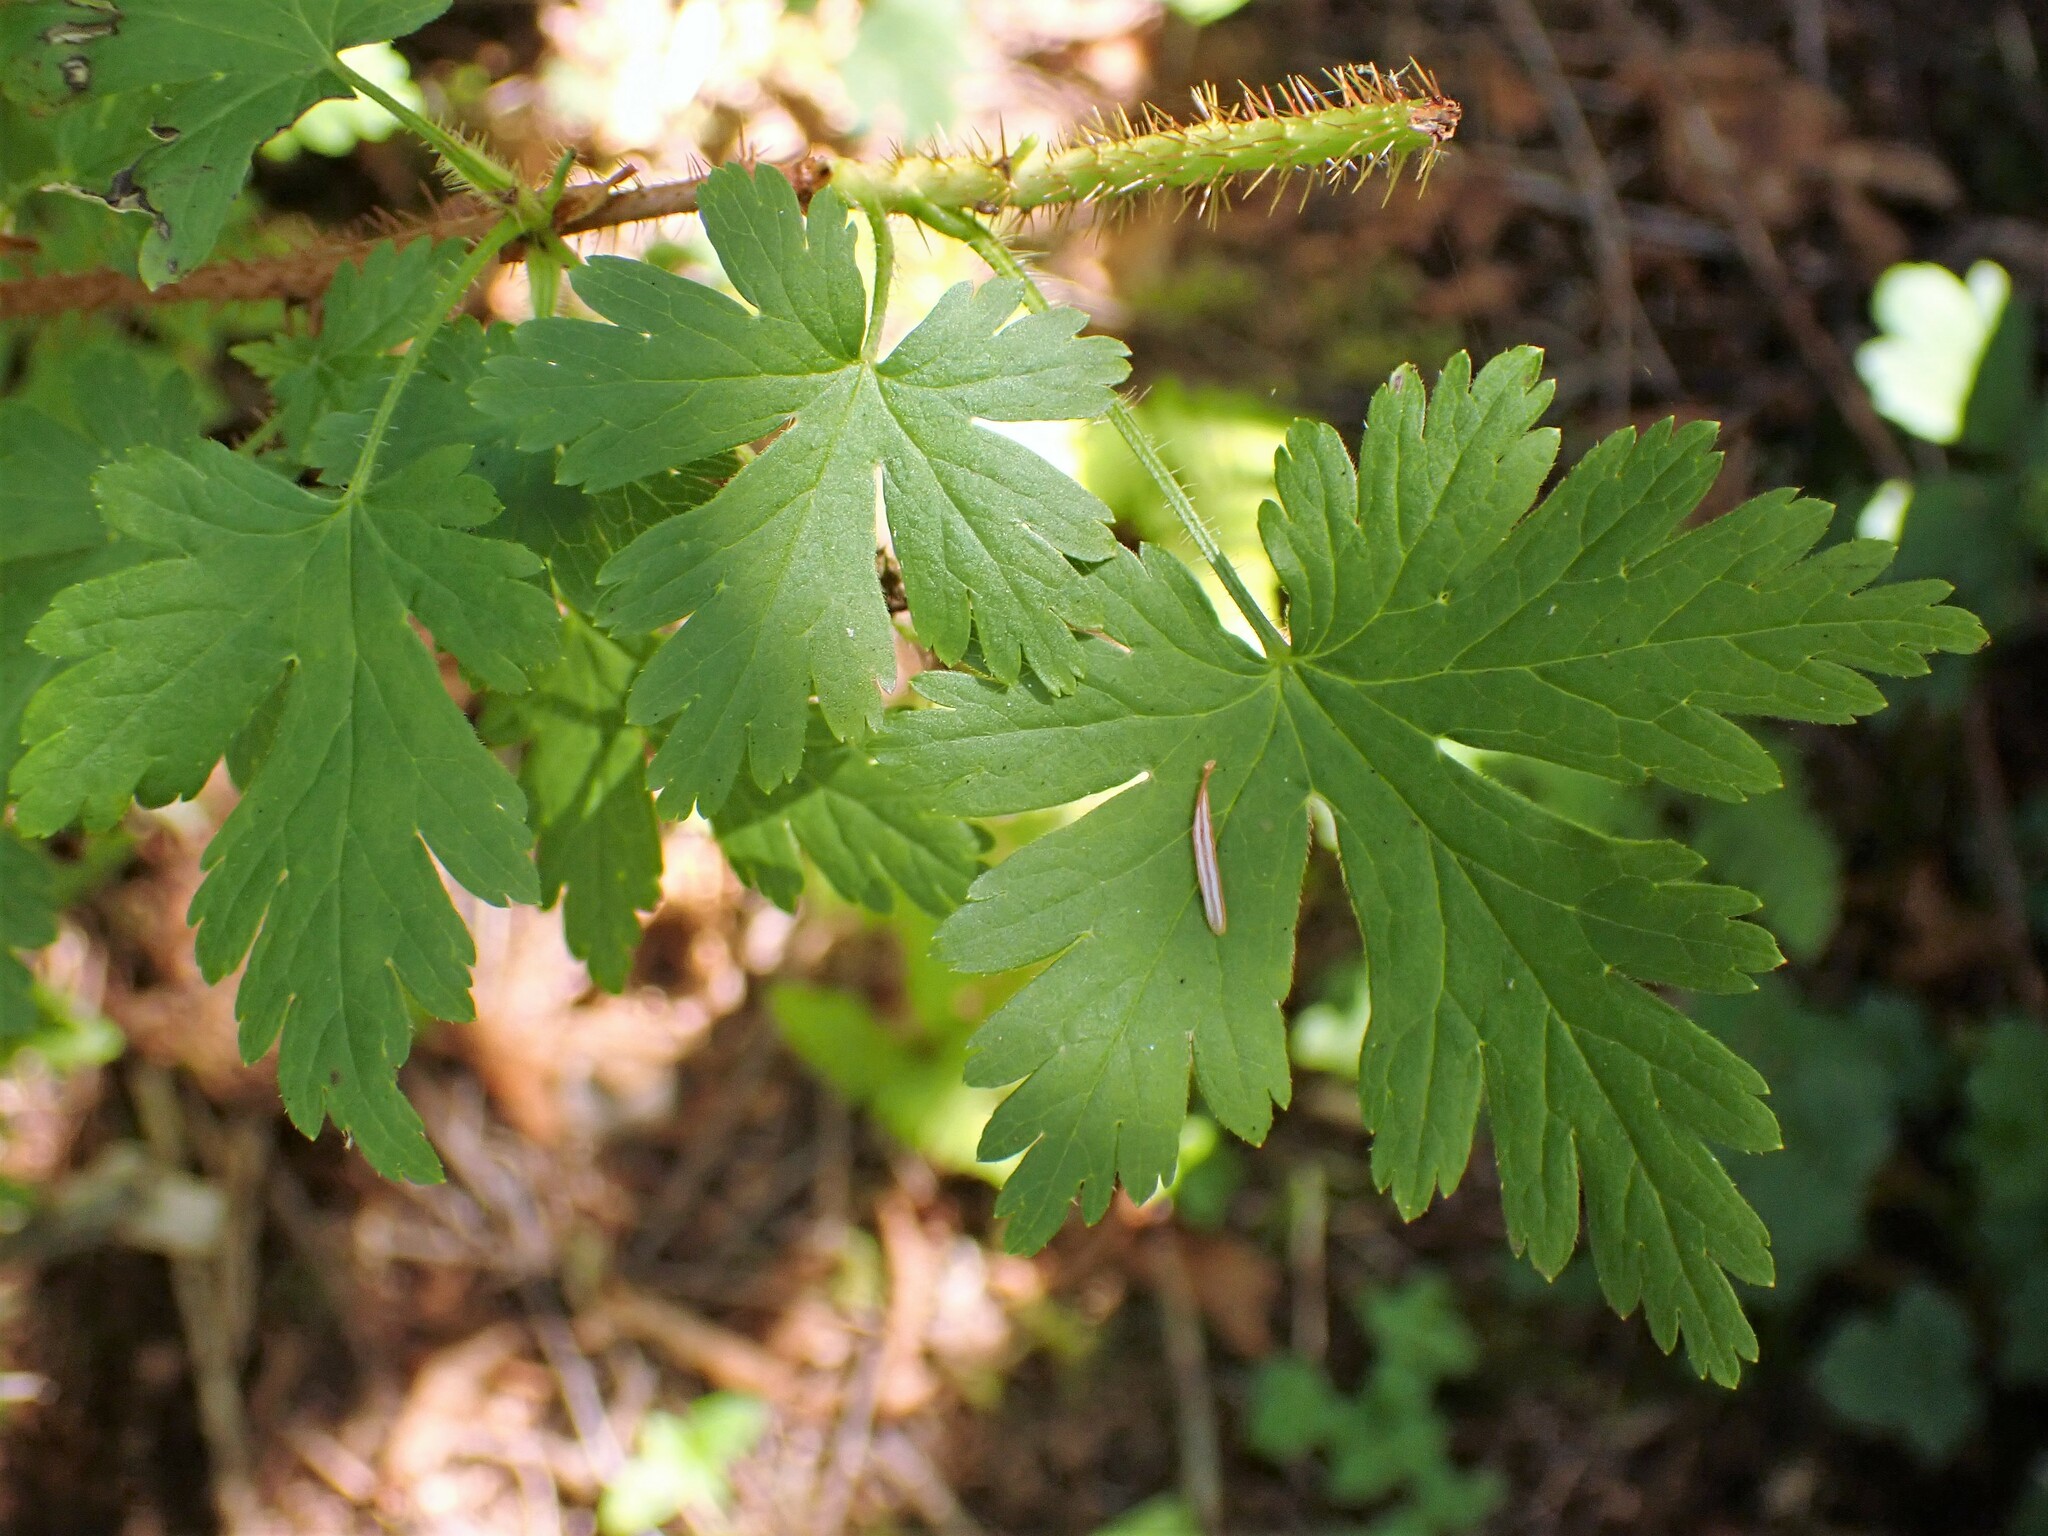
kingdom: Plantae
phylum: Tracheophyta
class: Magnoliopsida
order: Saxifragales
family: Grossulariaceae
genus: Ribes
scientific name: Ribes lacustre
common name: Black gooseberry
